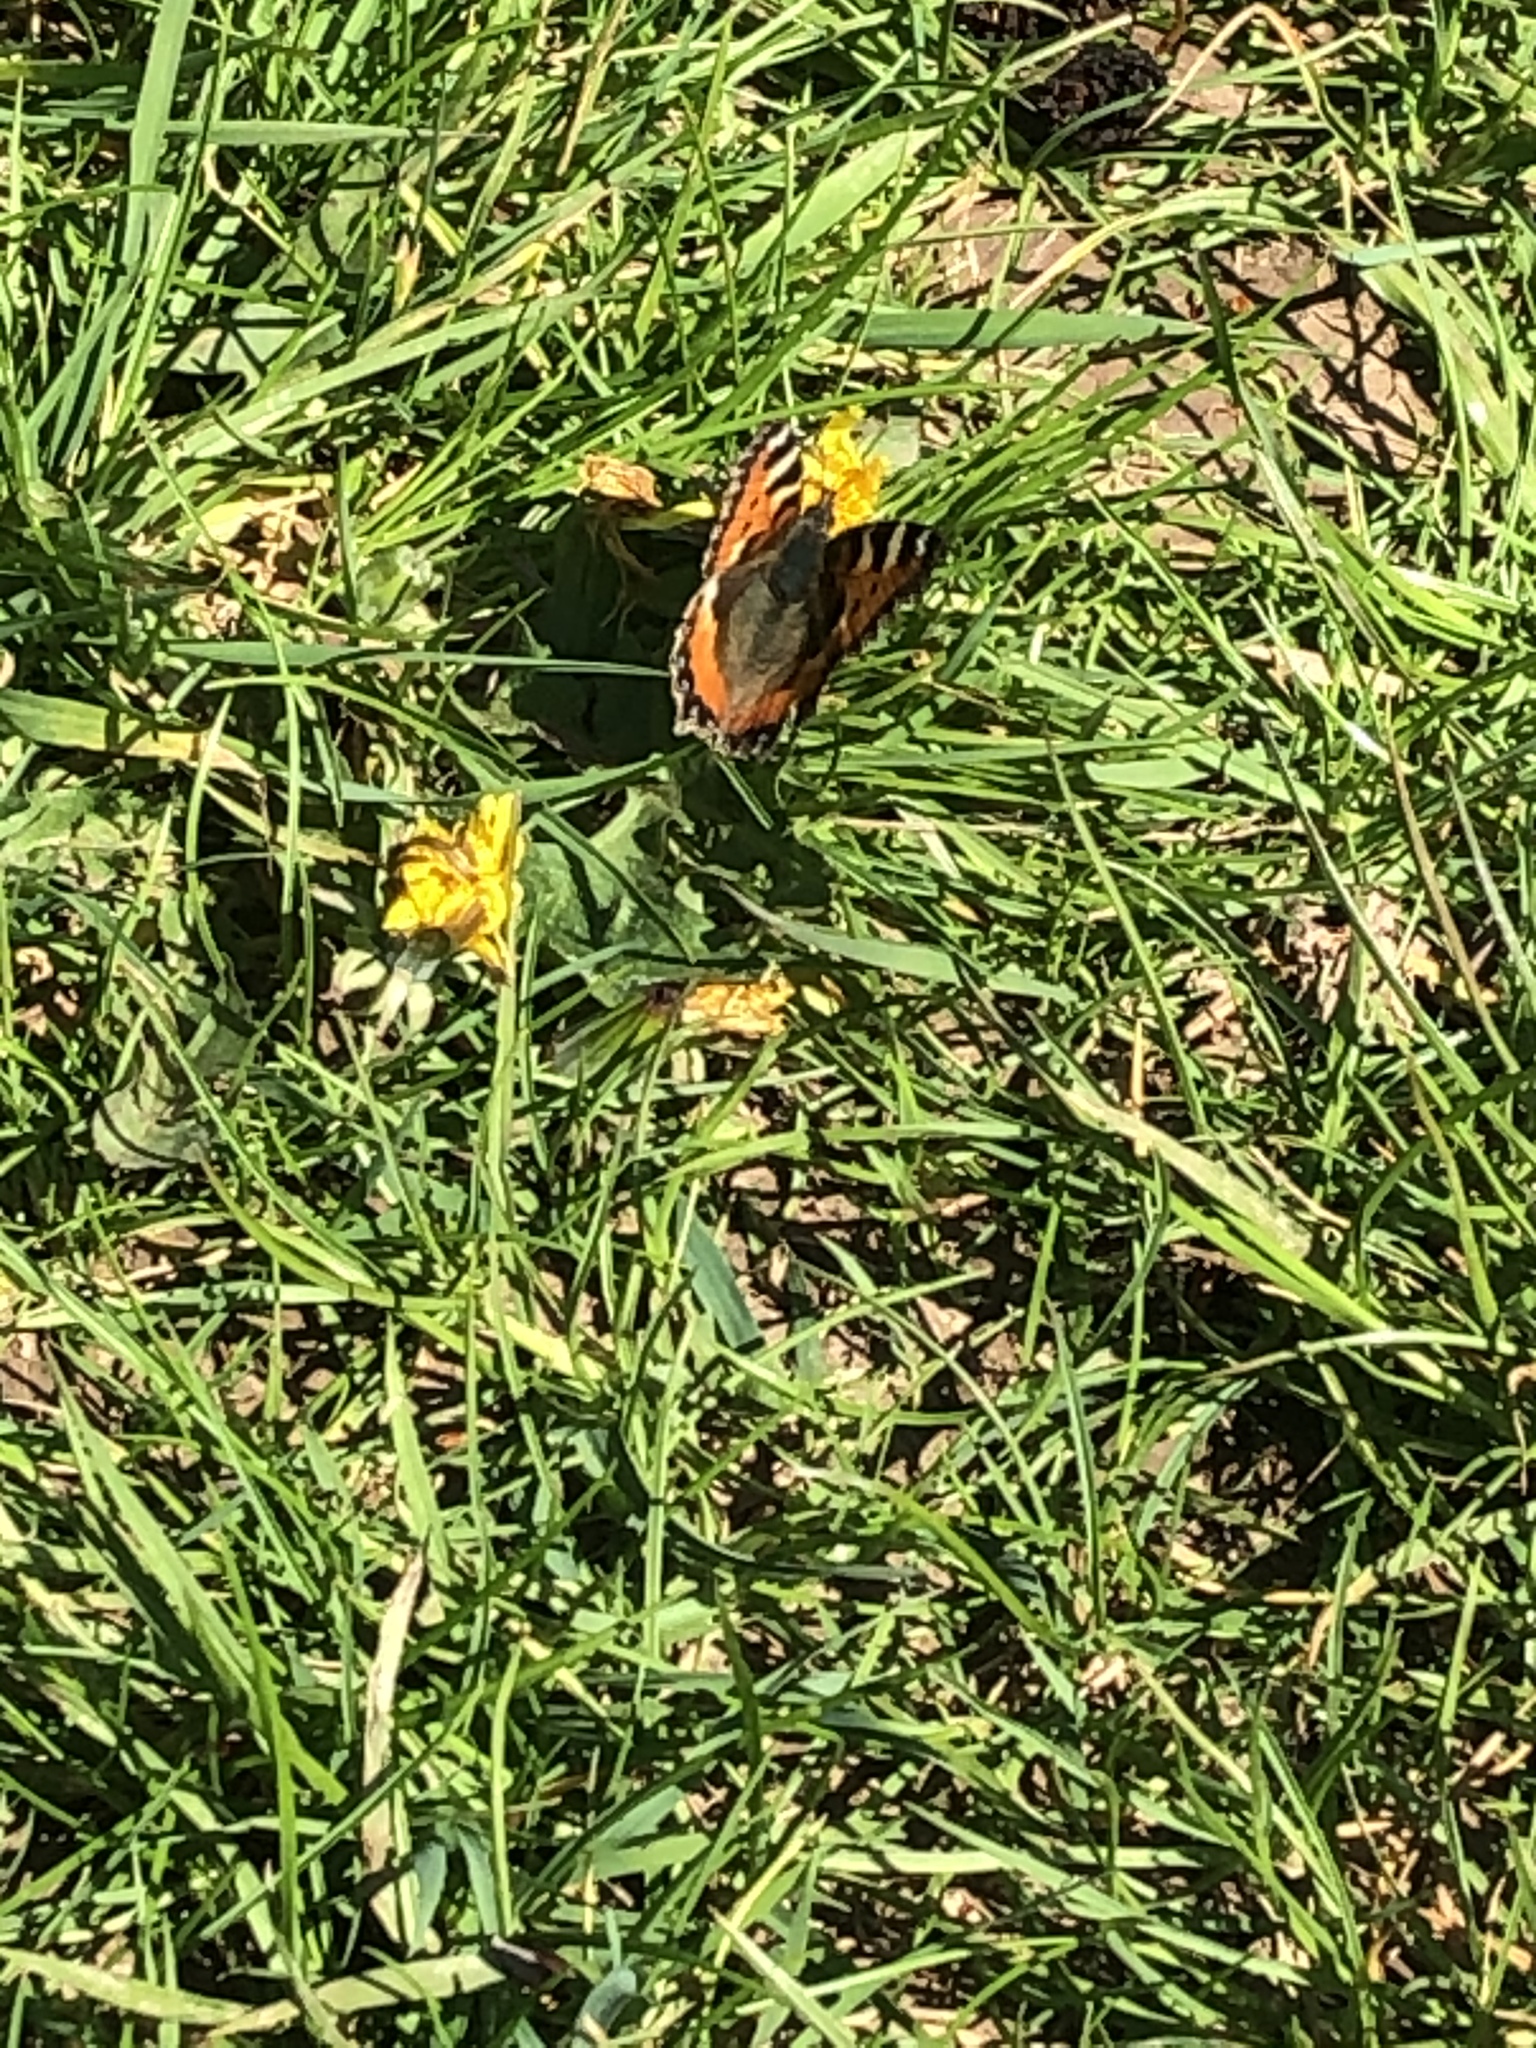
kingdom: Animalia
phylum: Arthropoda
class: Insecta
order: Lepidoptera
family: Nymphalidae
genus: Aglais
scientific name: Aglais urticae
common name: Small tortoiseshell
